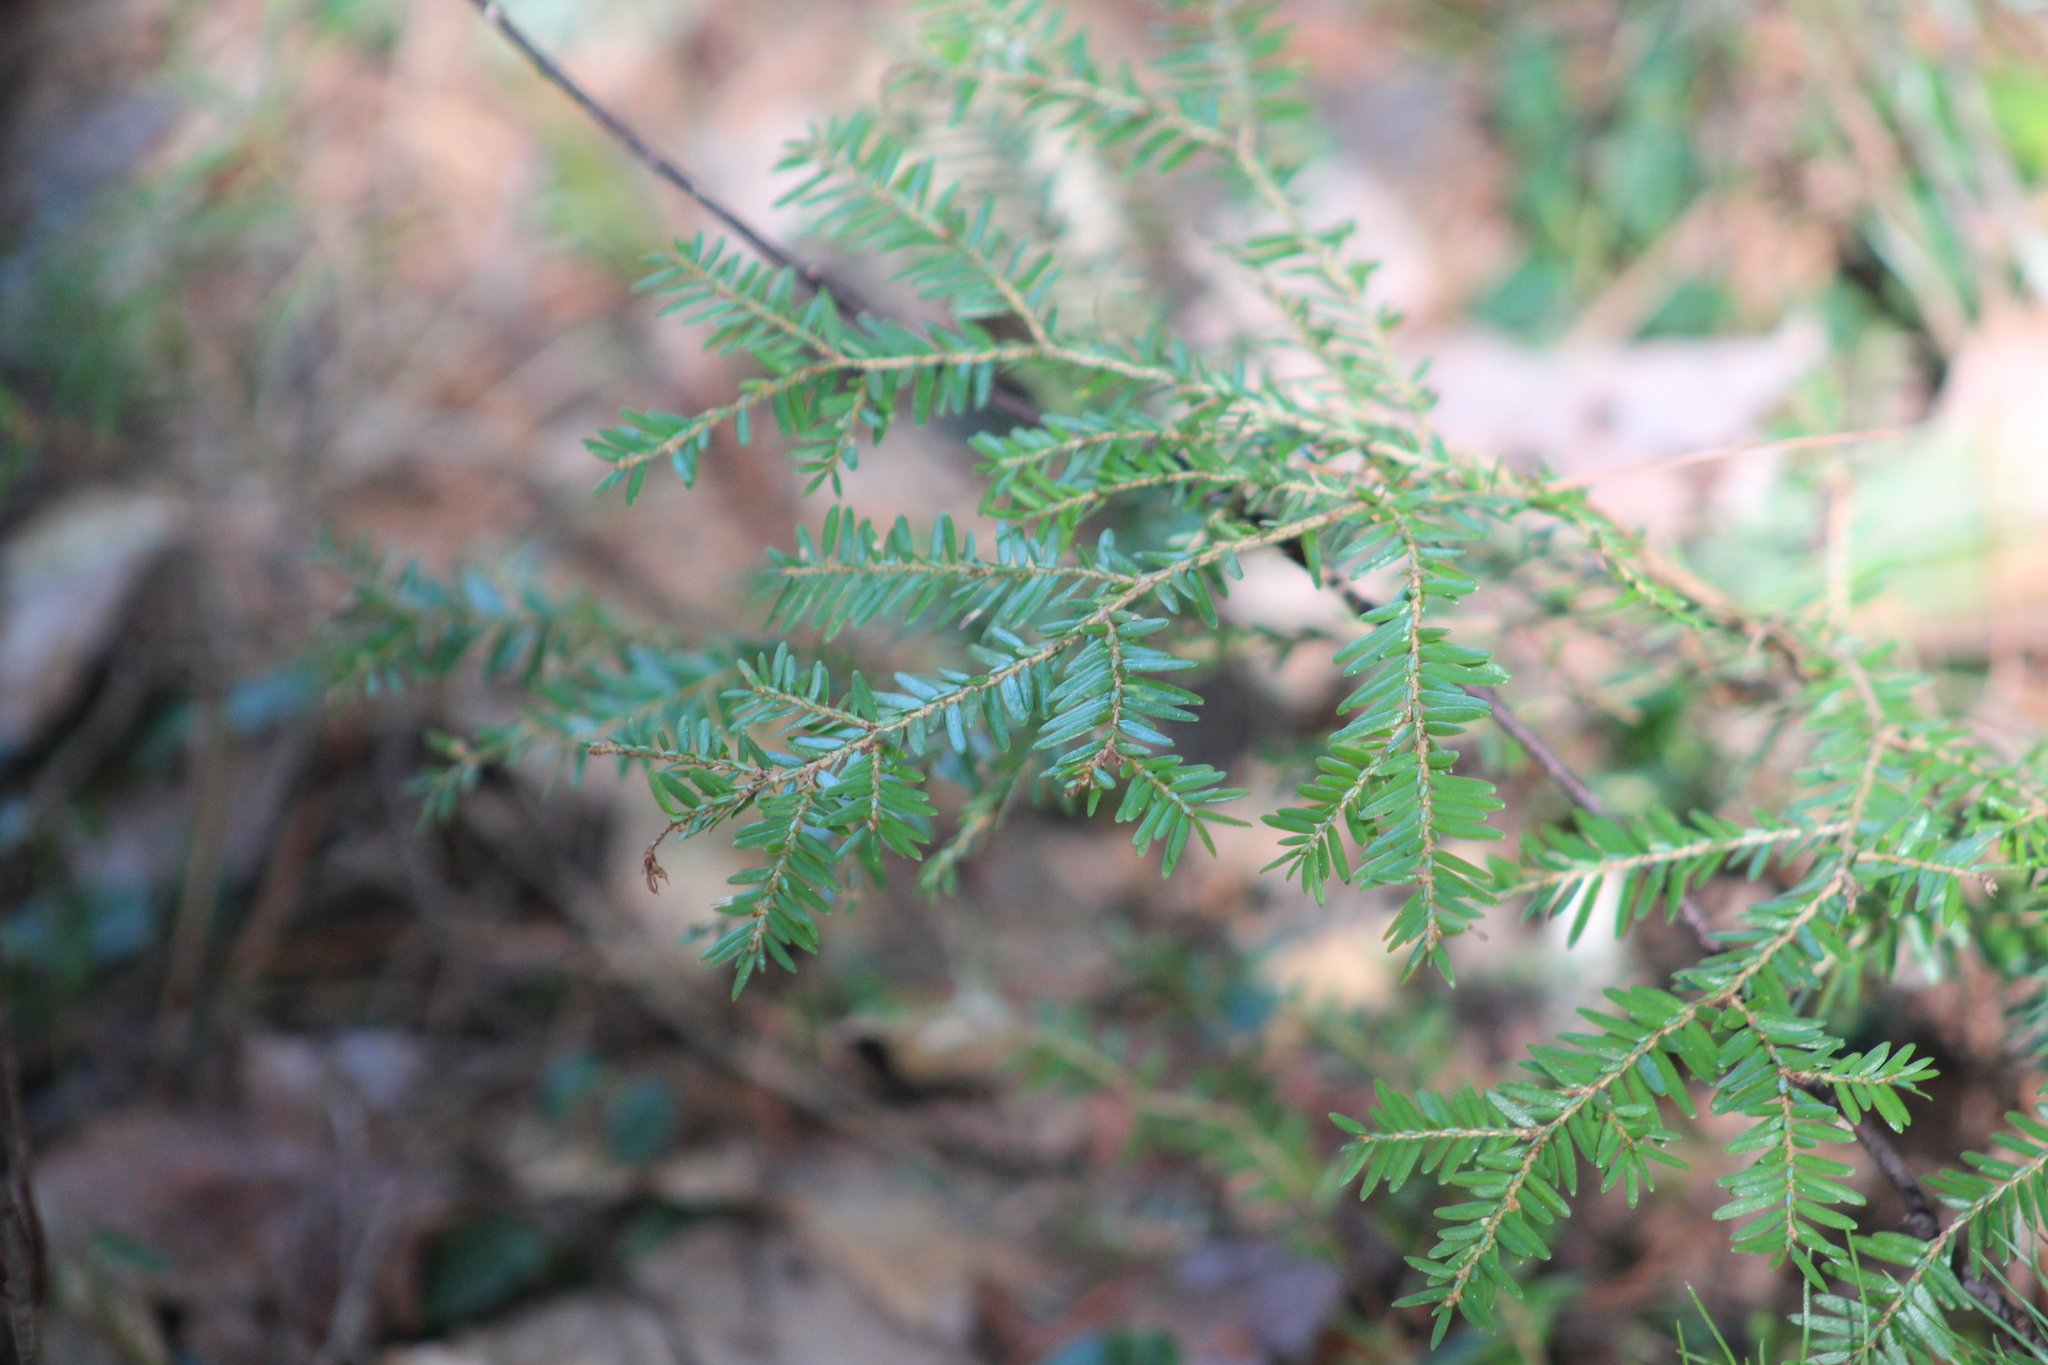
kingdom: Plantae
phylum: Tracheophyta
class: Pinopsida
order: Pinales
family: Pinaceae
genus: Tsuga
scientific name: Tsuga canadensis
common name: Eastern hemlock
